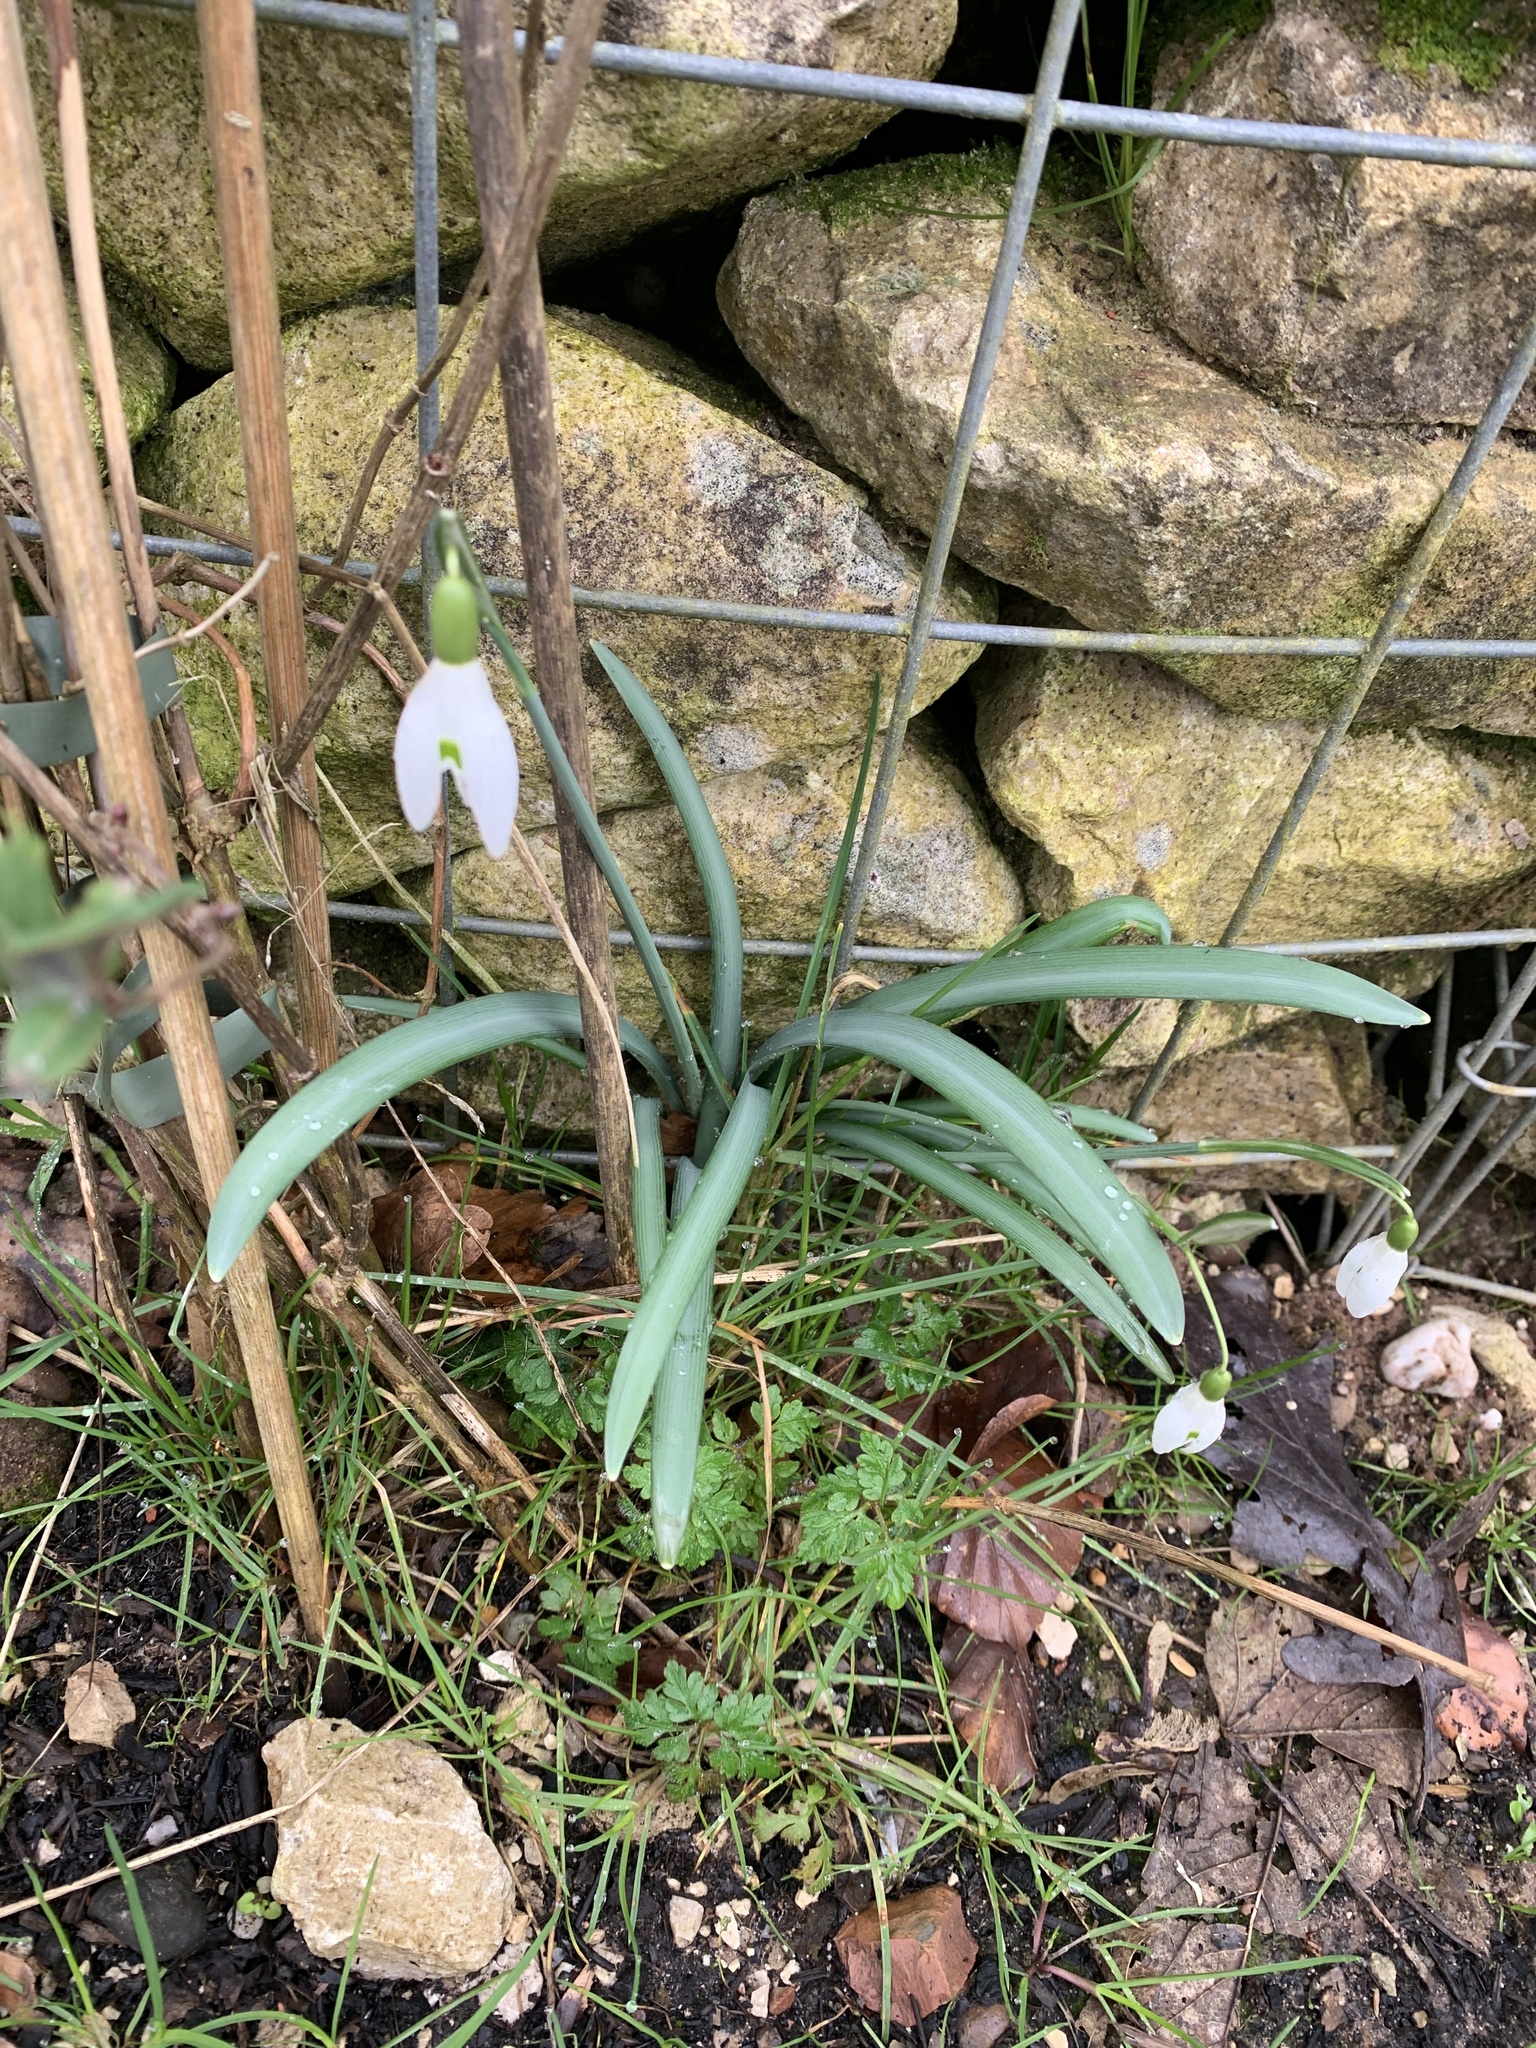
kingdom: Plantae
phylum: Tracheophyta
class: Liliopsida
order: Asparagales
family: Amaryllidaceae
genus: Galanthus
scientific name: Galanthus nivalis
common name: Snowdrop
